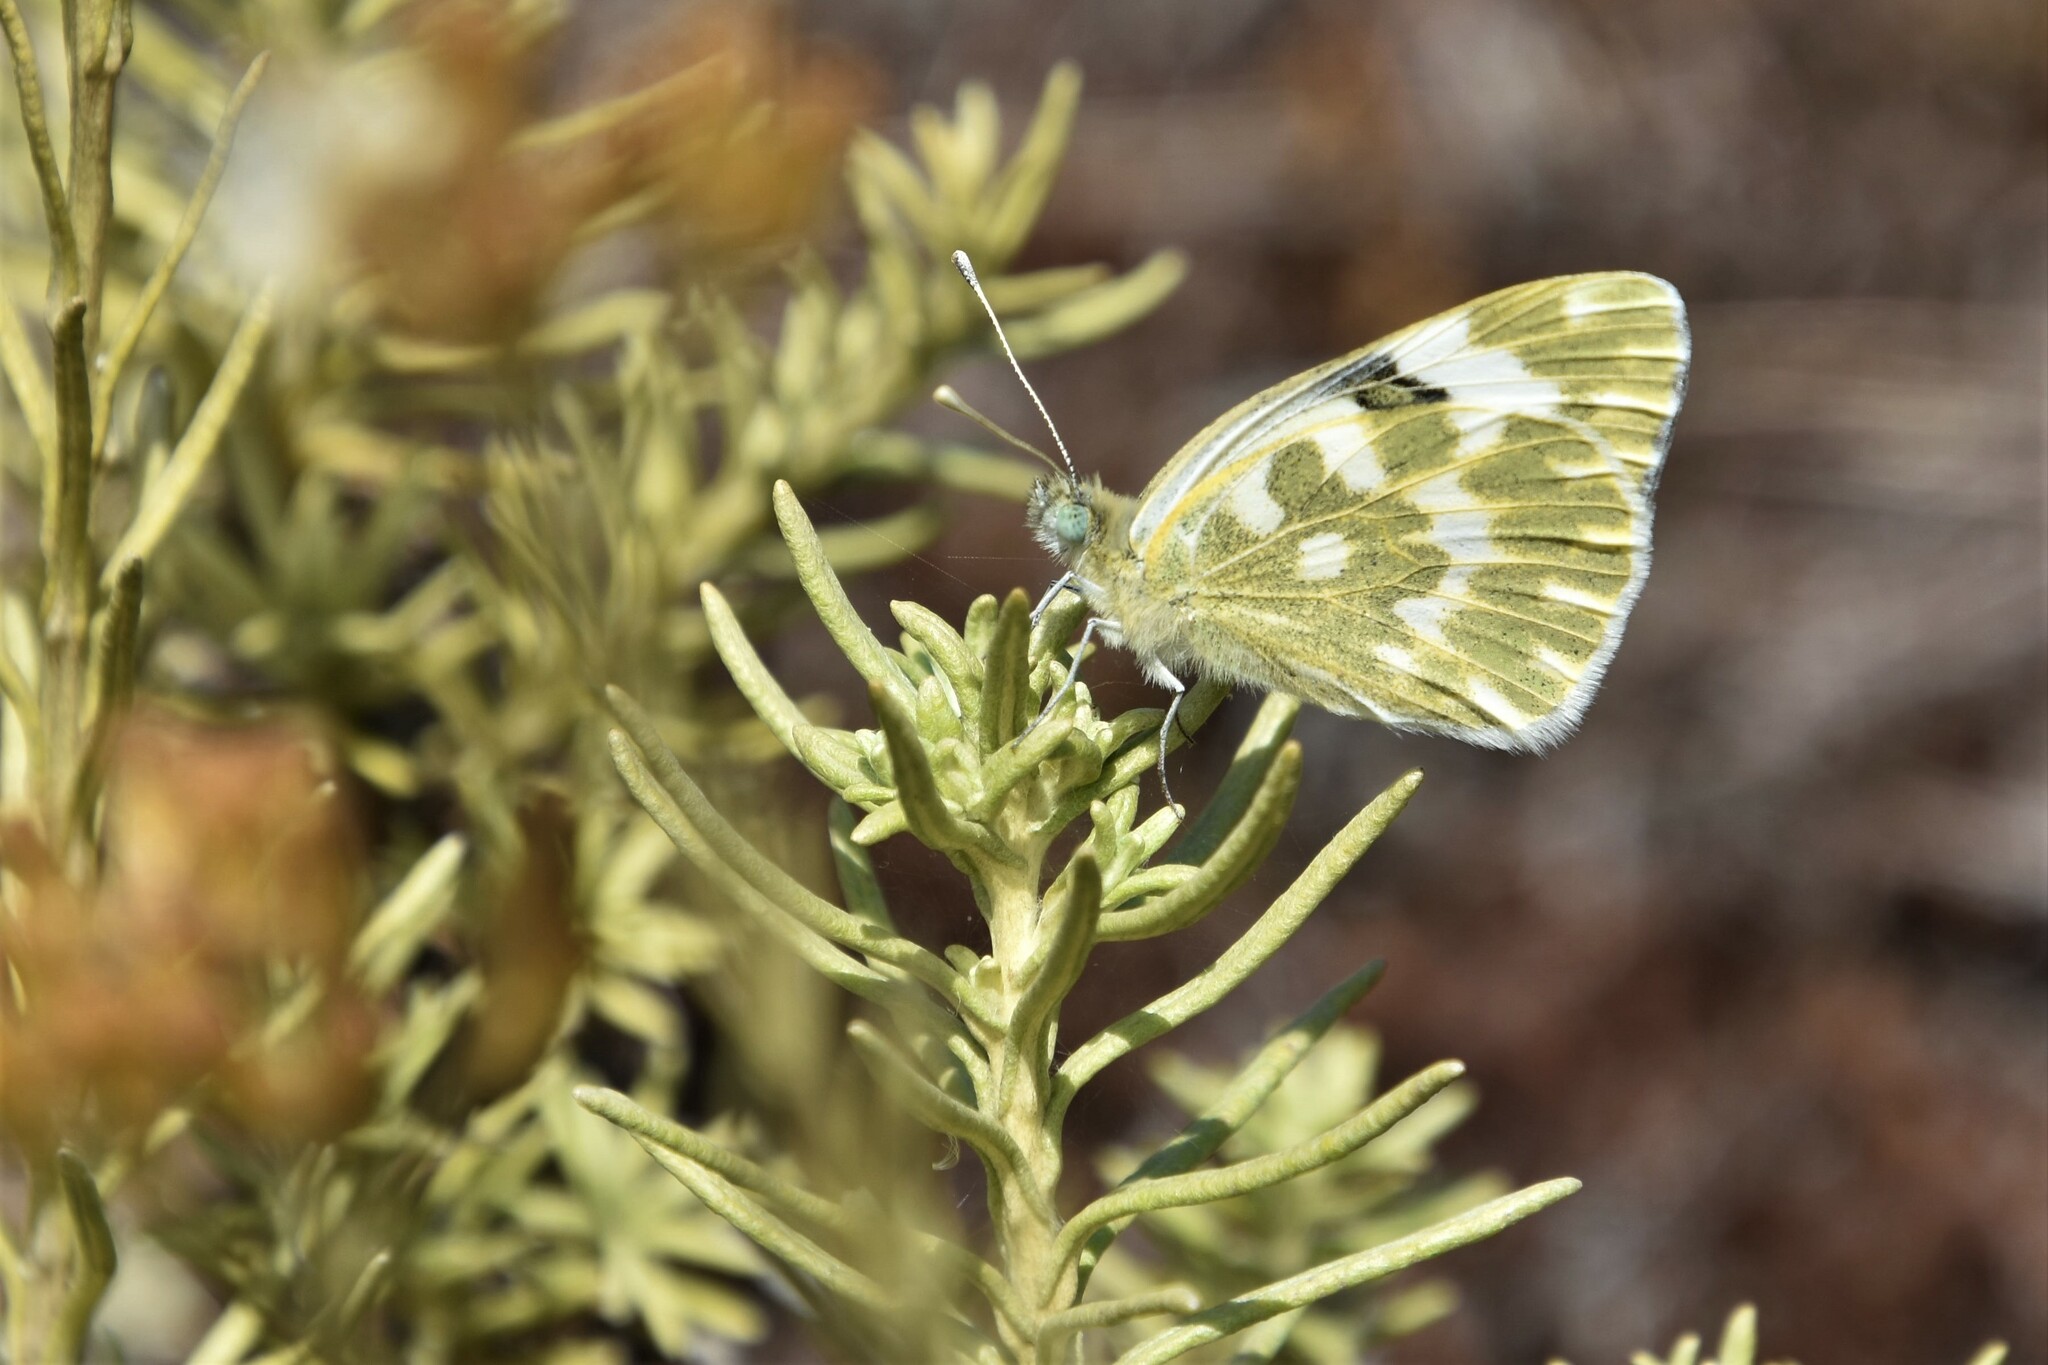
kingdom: Animalia
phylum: Arthropoda
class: Insecta
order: Lepidoptera
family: Pieridae
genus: Pontia
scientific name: Pontia daplidice
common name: Bath white
